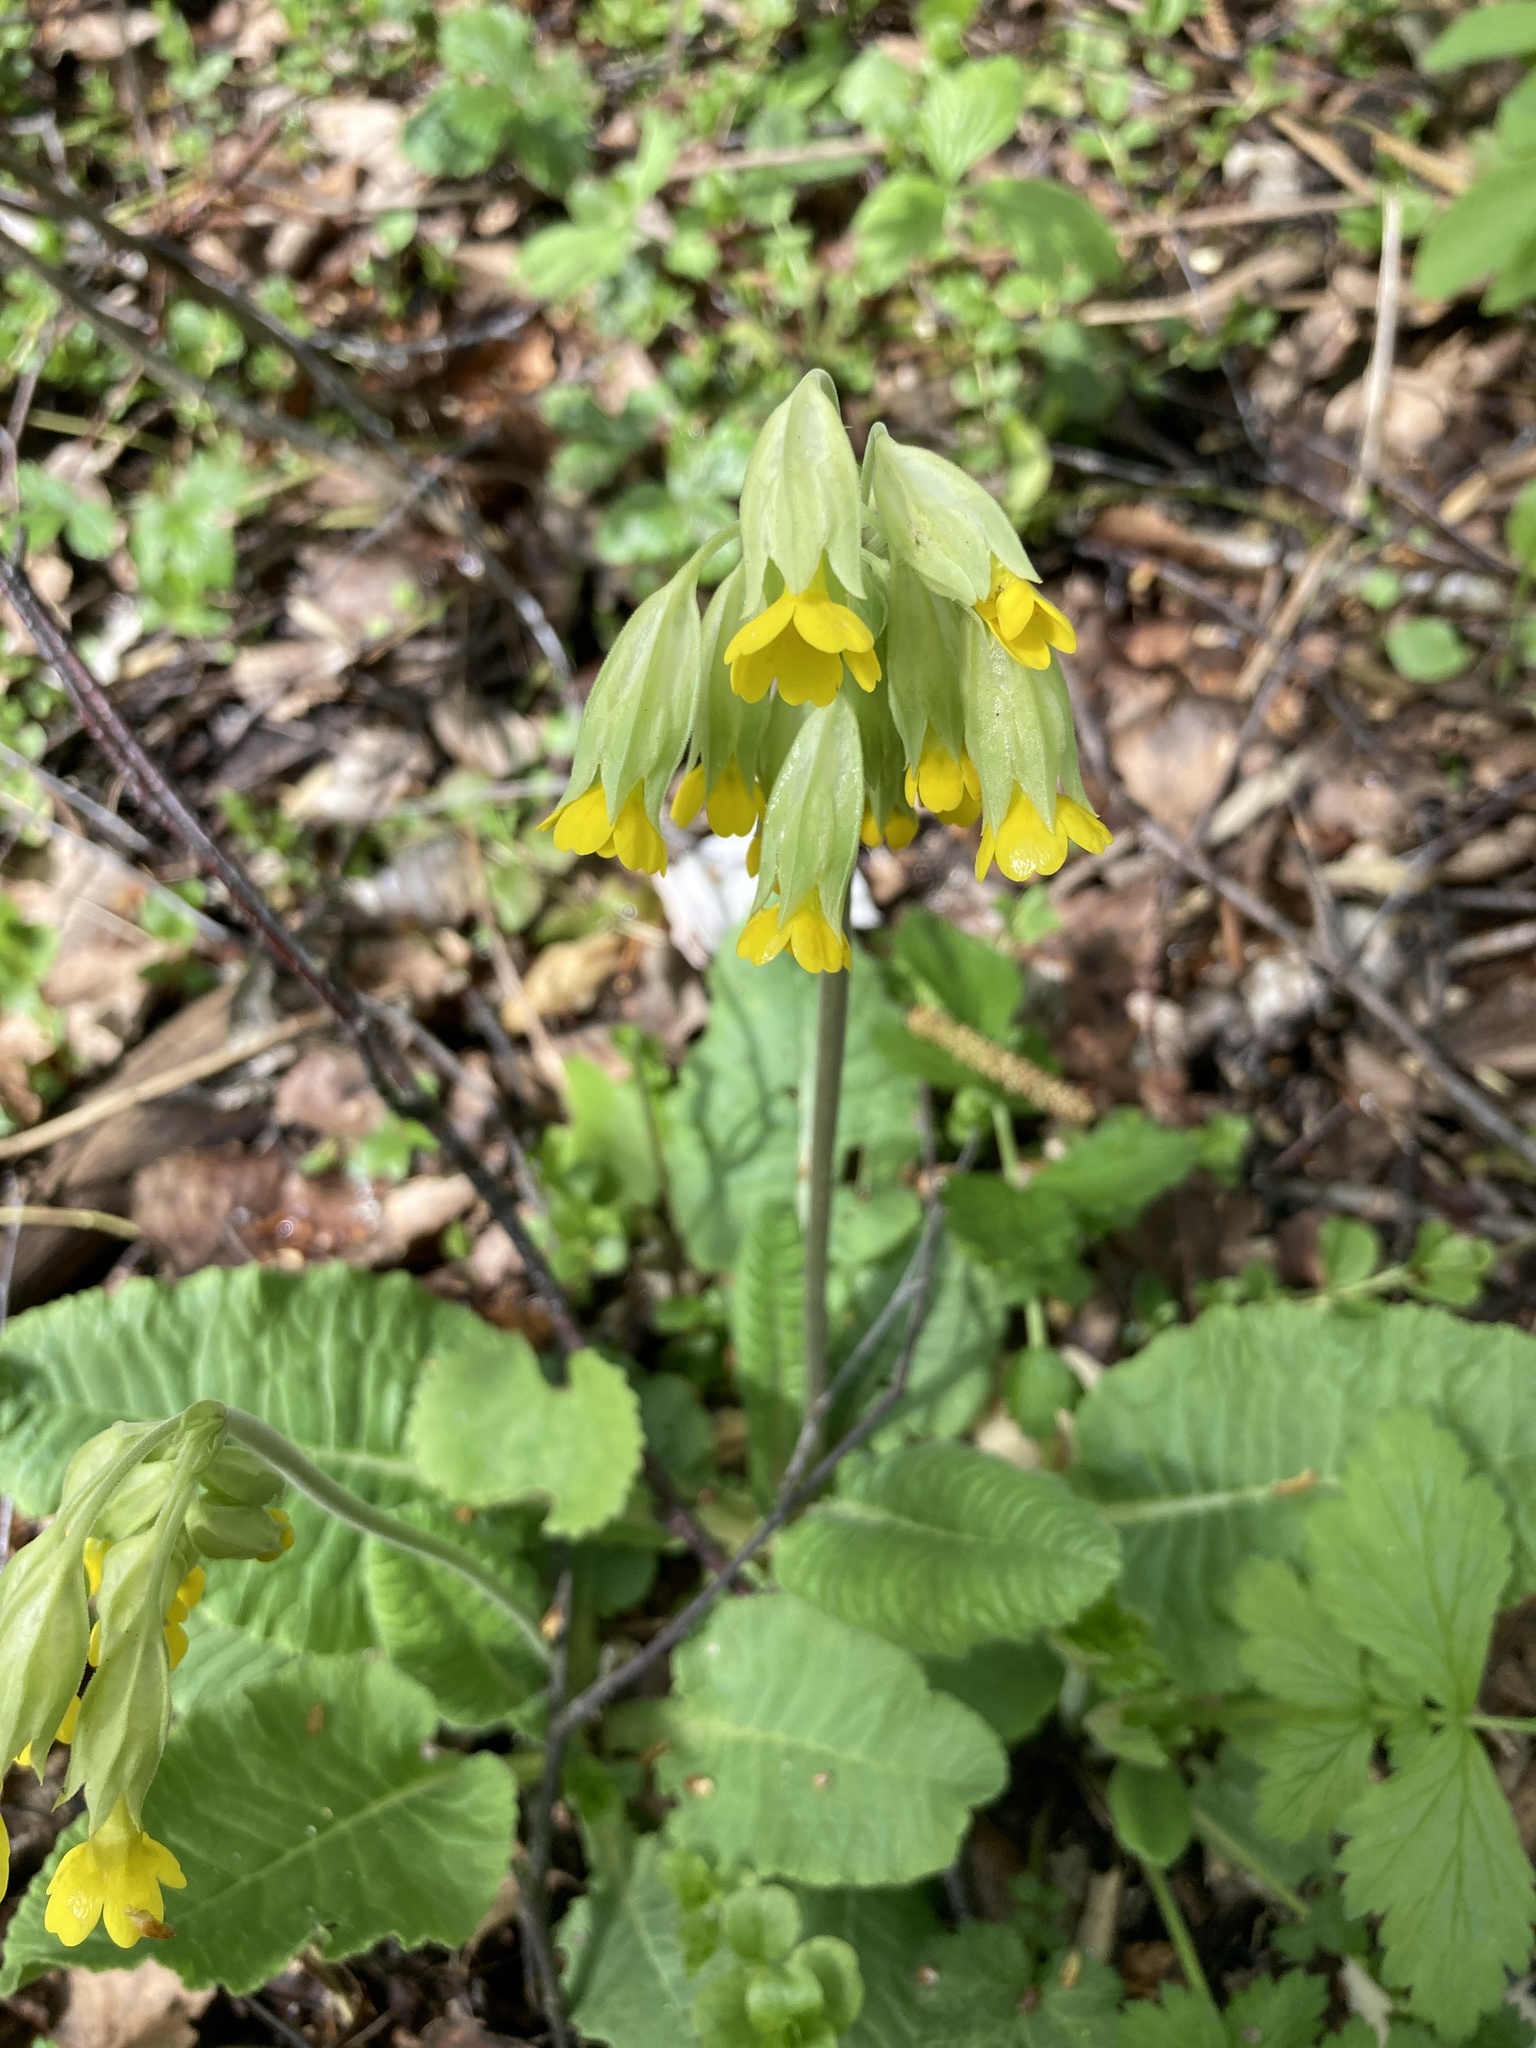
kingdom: Plantae
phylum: Tracheophyta
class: Magnoliopsida
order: Ericales
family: Primulaceae
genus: Primula
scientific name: Primula veris
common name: Cowslip
